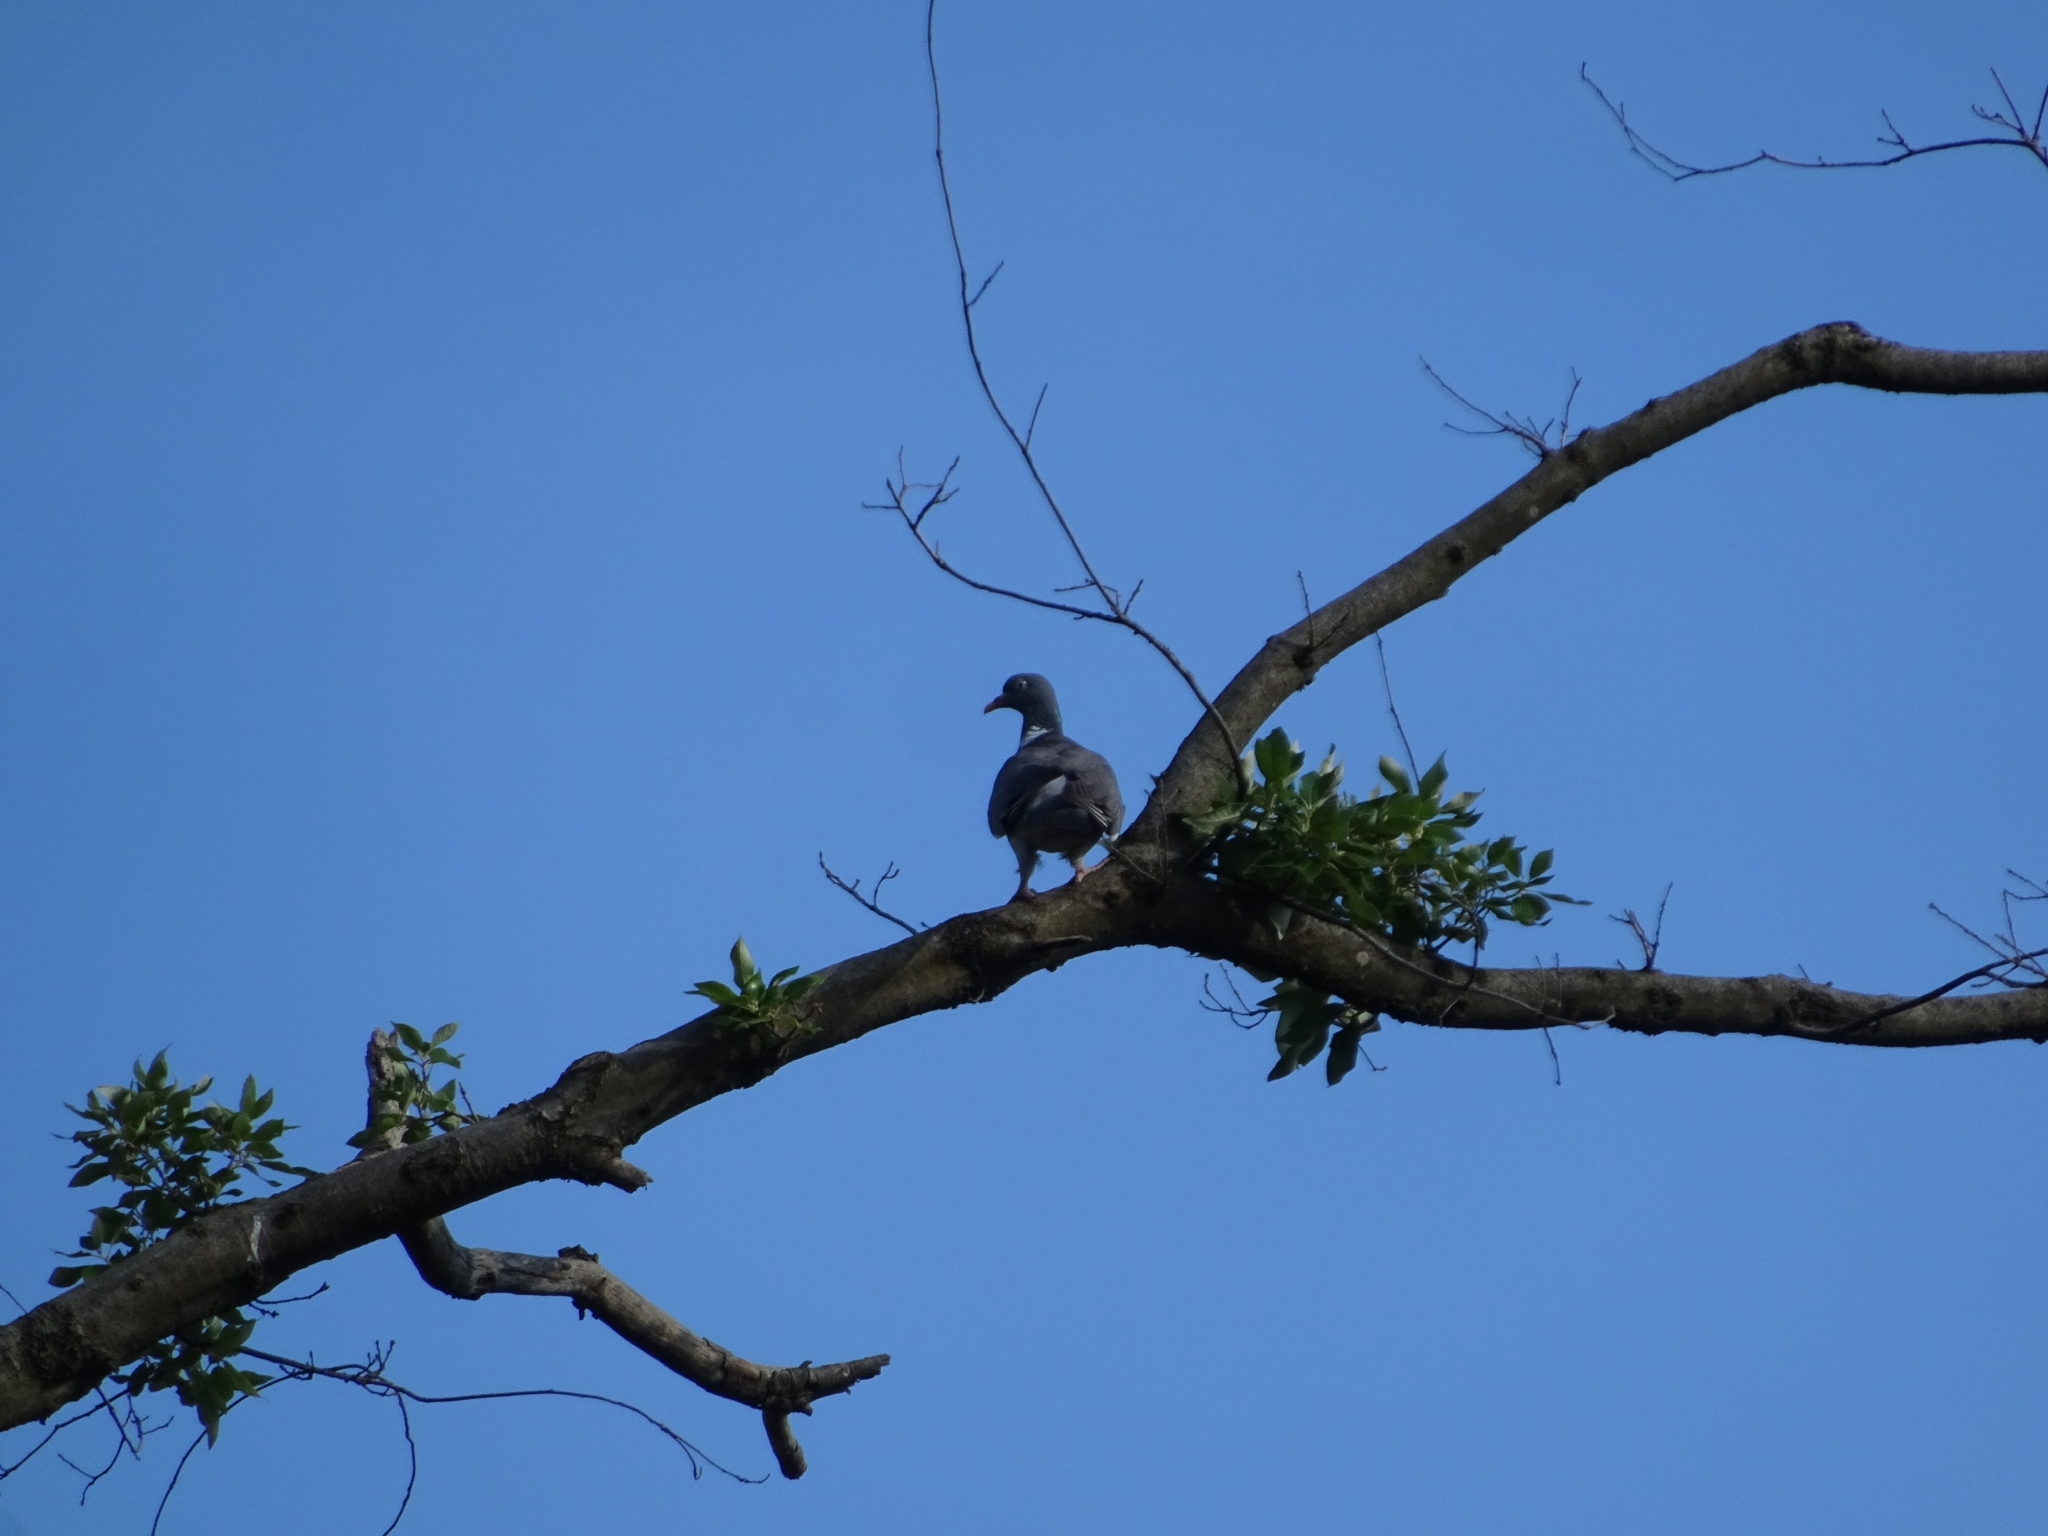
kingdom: Animalia
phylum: Chordata
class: Aves
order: Columbiformes
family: Columbidae
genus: Columba
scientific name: Columba palumbus
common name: Common wood pigeon
